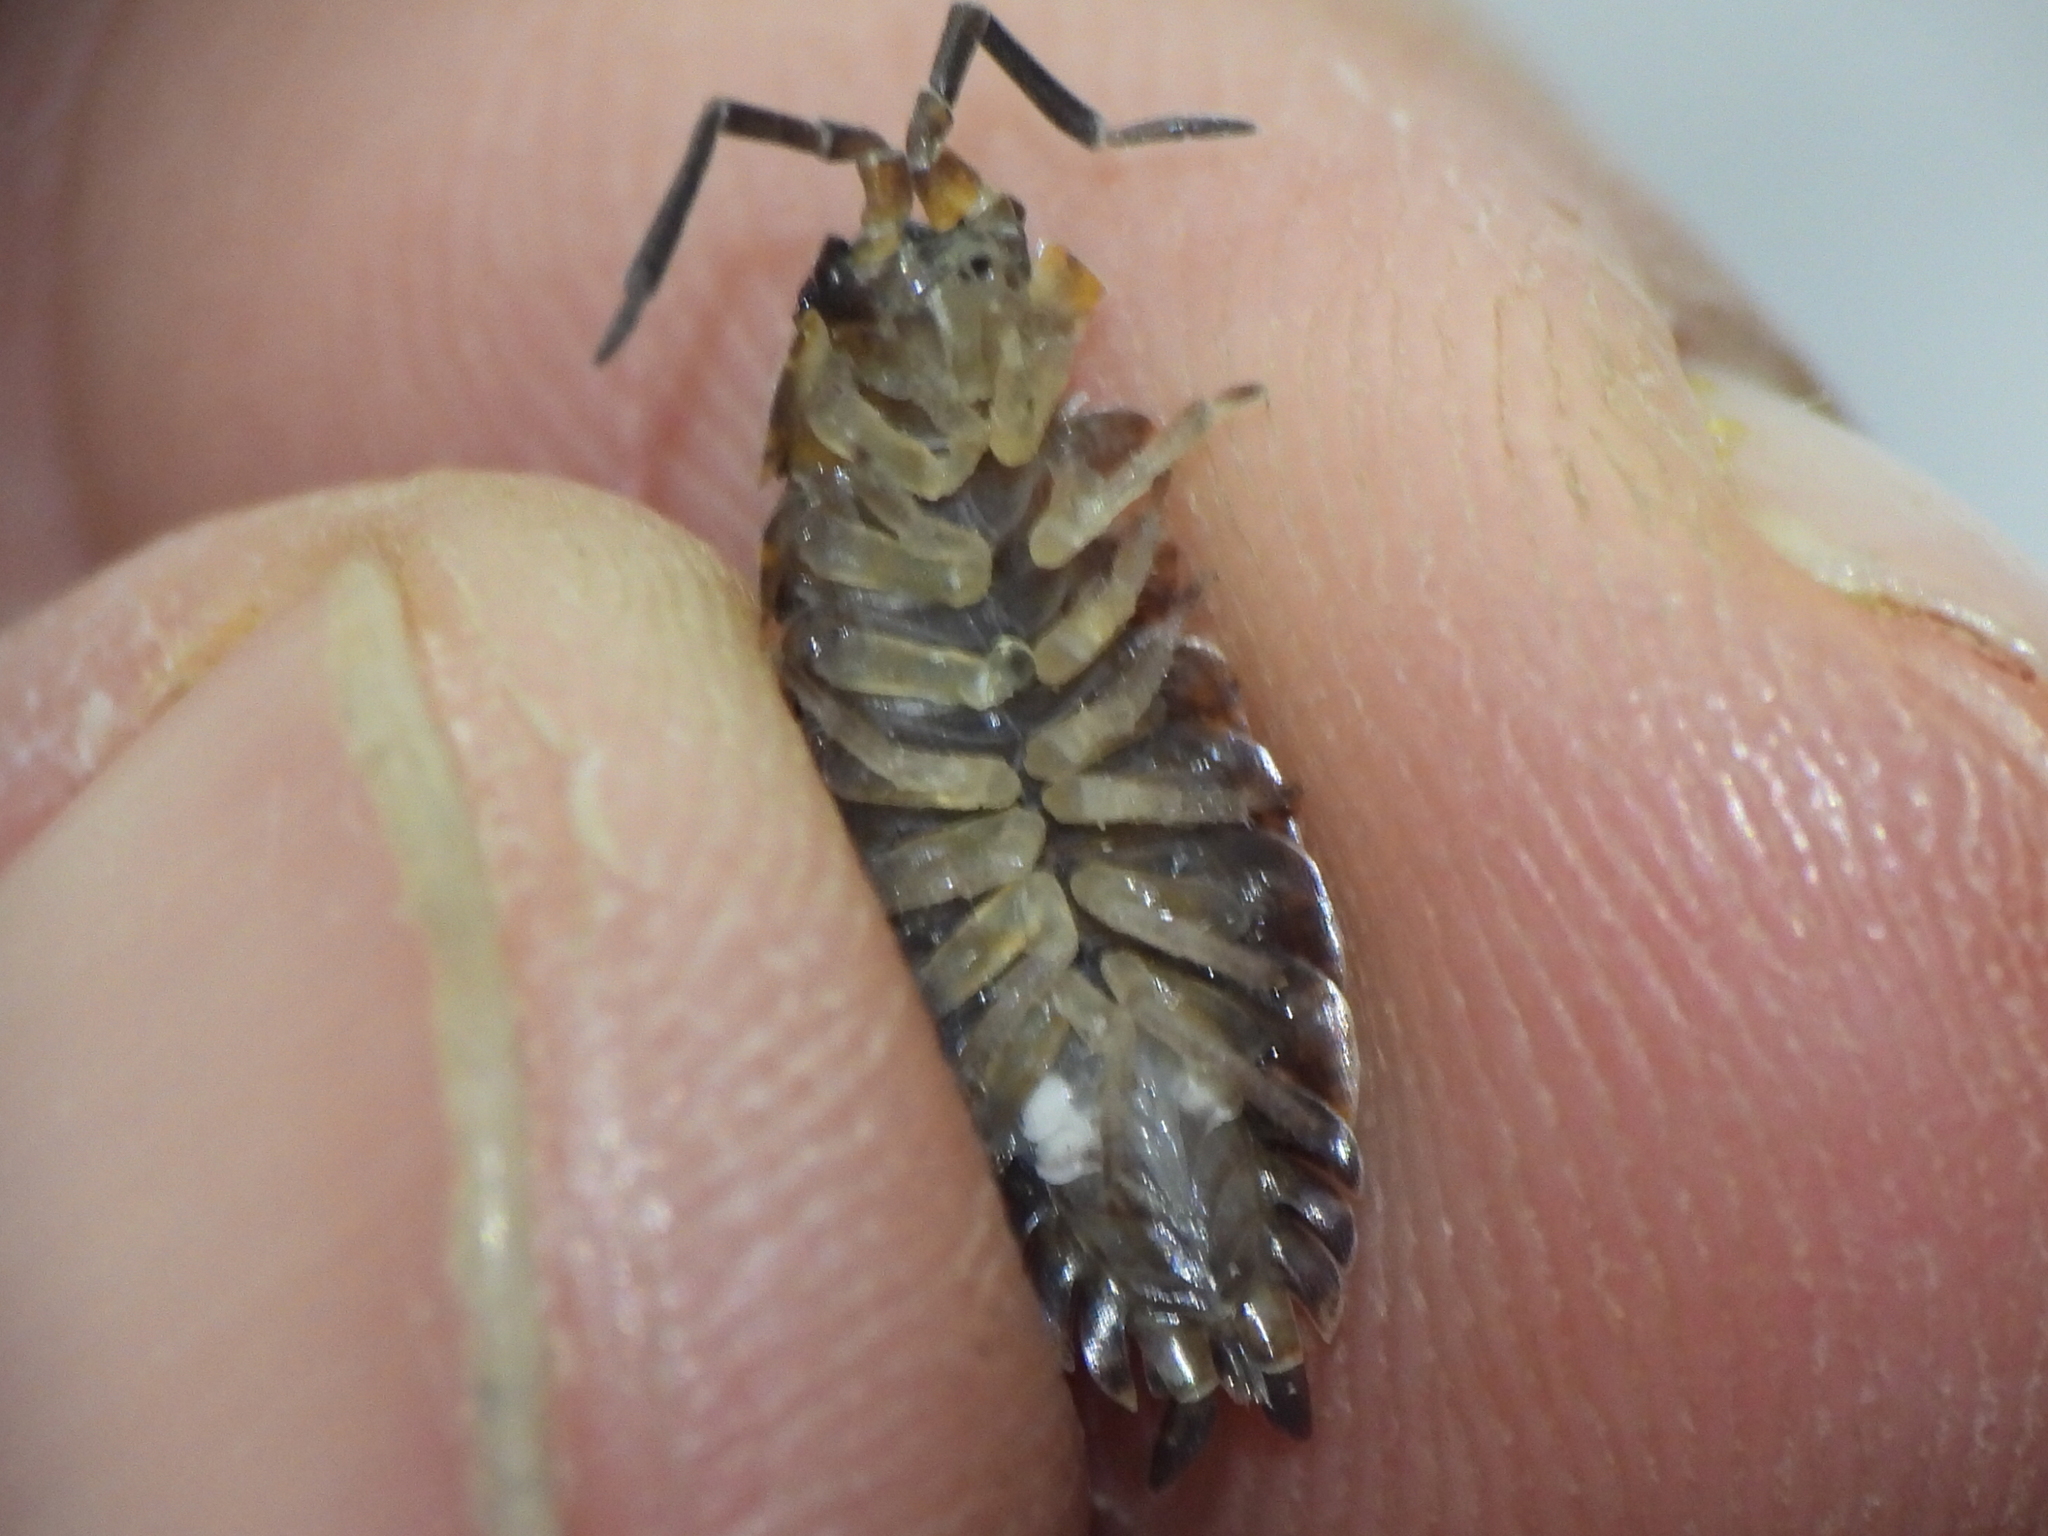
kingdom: Animalia
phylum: Arthropoda
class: Malacostraca
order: Isopoda
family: Porcellionidae
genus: Porcellio
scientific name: Porcellio scaber
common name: Common rough woodlouse
